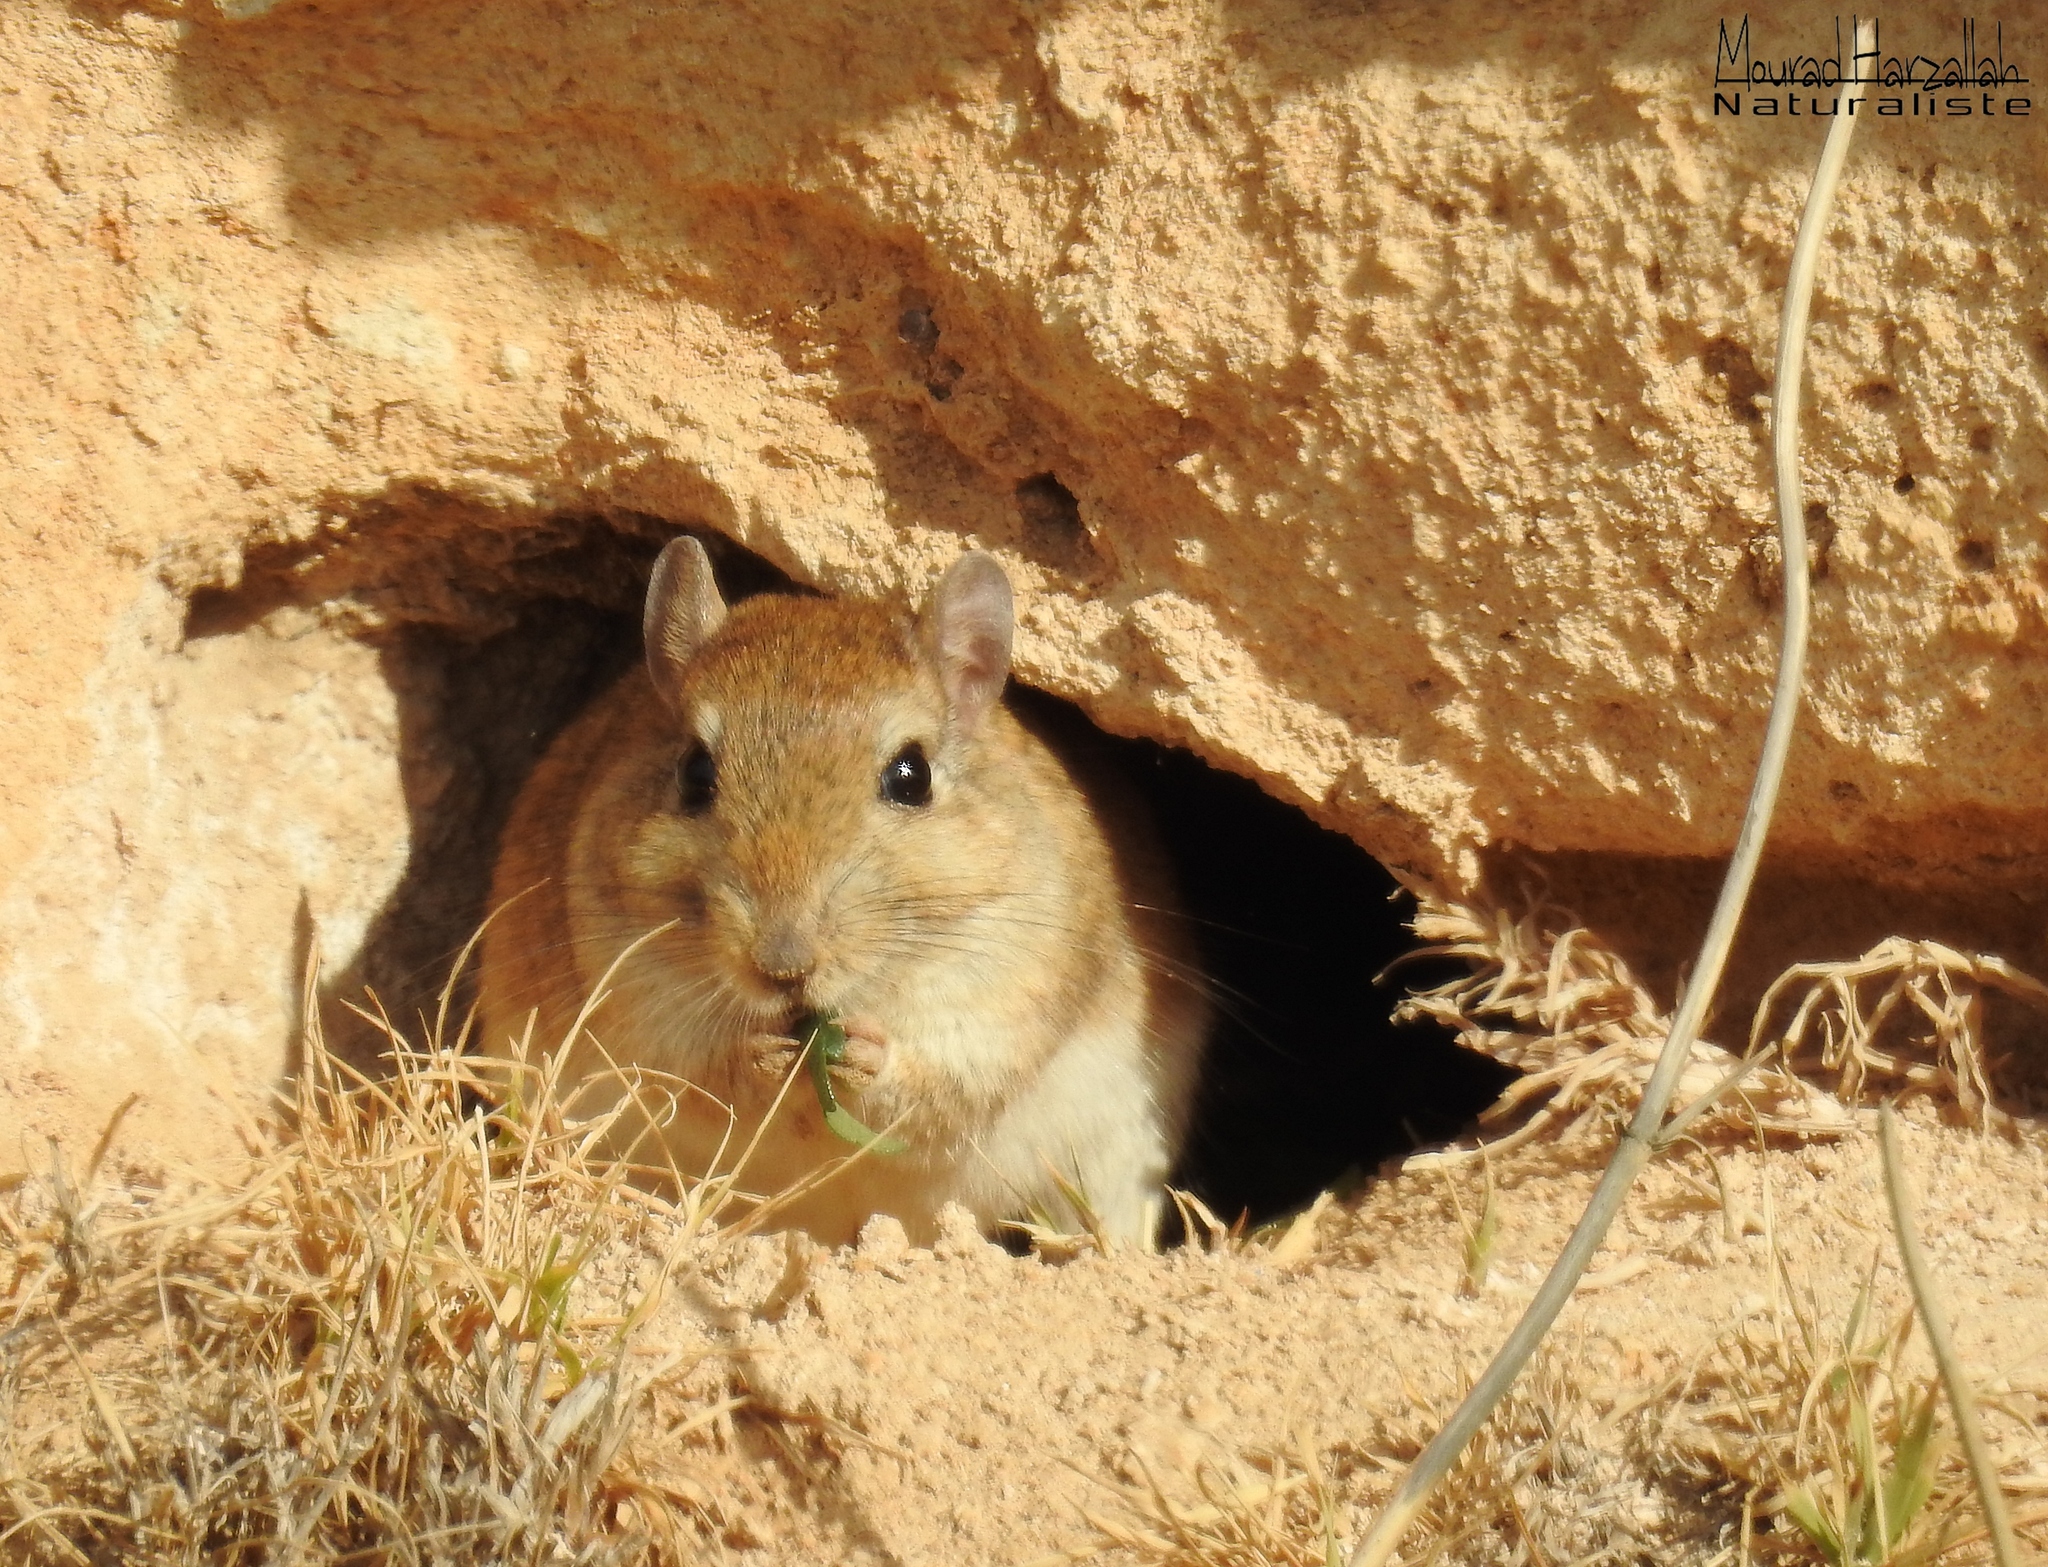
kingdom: Animalia
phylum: Chordata
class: Mammalia
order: Rodentia
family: Muridae
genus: Meriones
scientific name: Meriones shawi
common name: Shaw's jird
